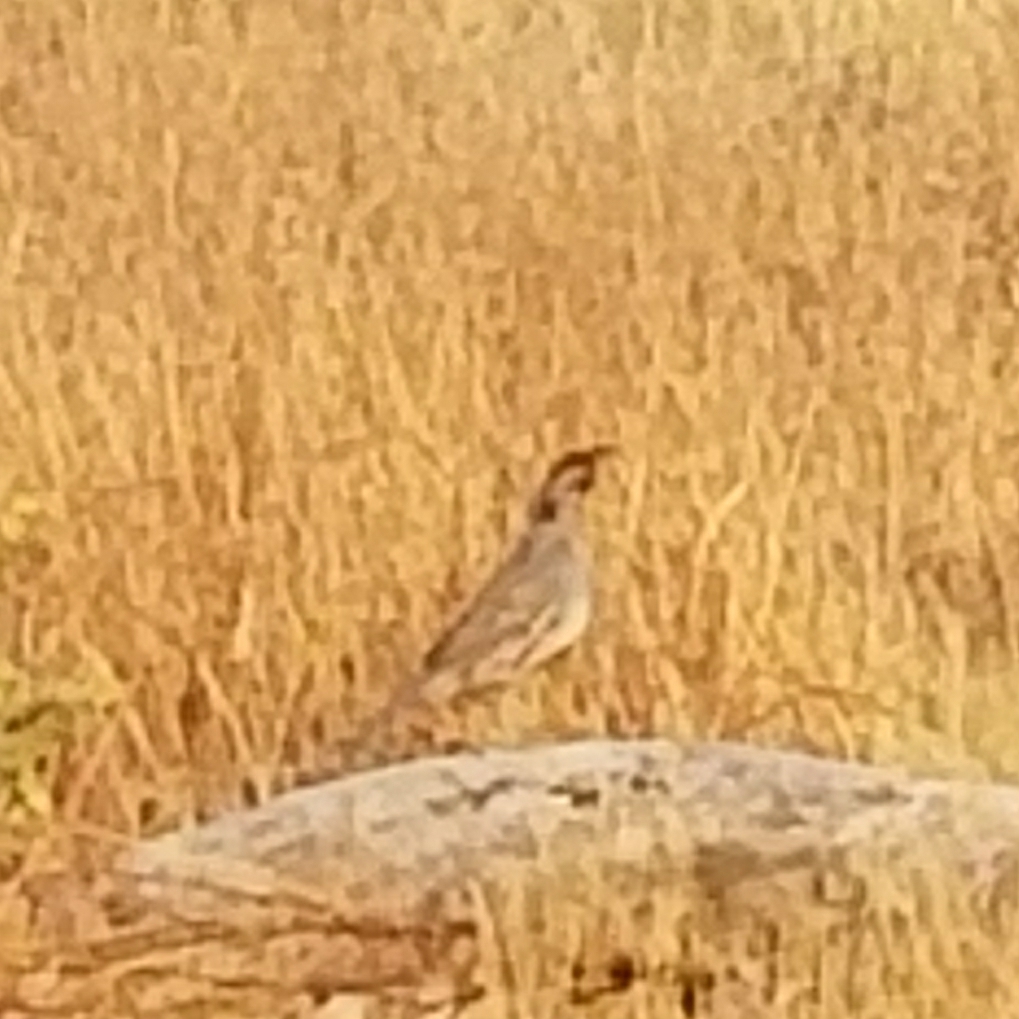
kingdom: Animalia
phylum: Chordata
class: Aves
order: Galliformes
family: Odontophoridae
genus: Callipepla
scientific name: Callipepla gambelii
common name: Gambel's quail
